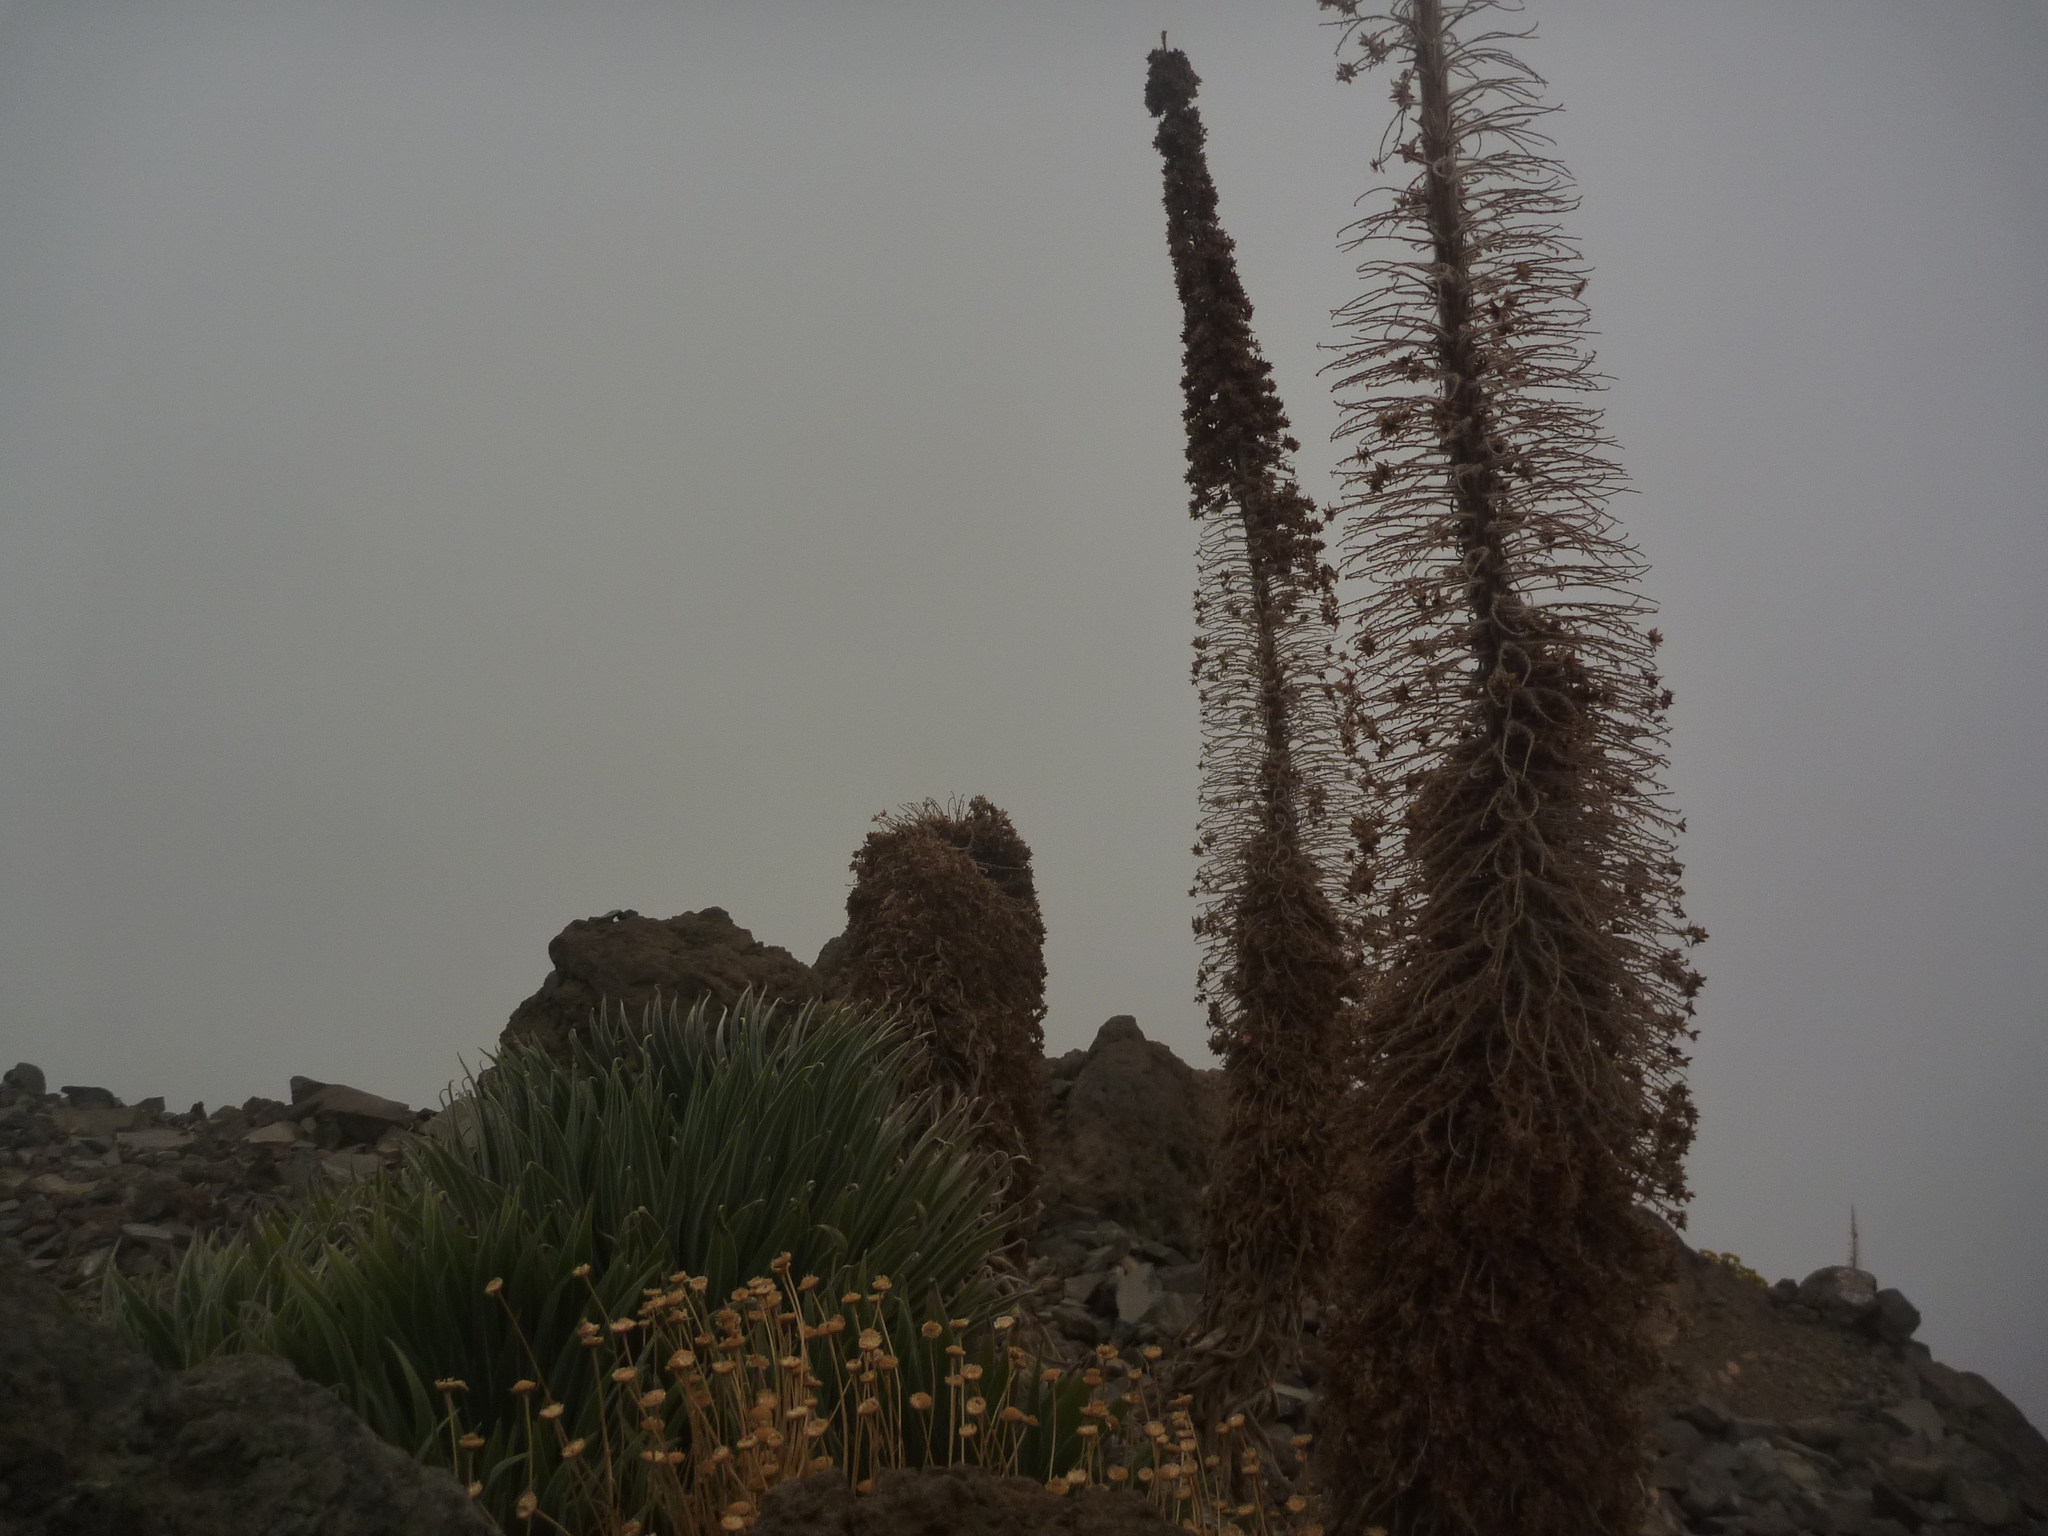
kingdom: Plantae
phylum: Tracheophyta
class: Magnoliopsida
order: Boraginales
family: Boraginaceae
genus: Echium
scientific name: Echium perezii
